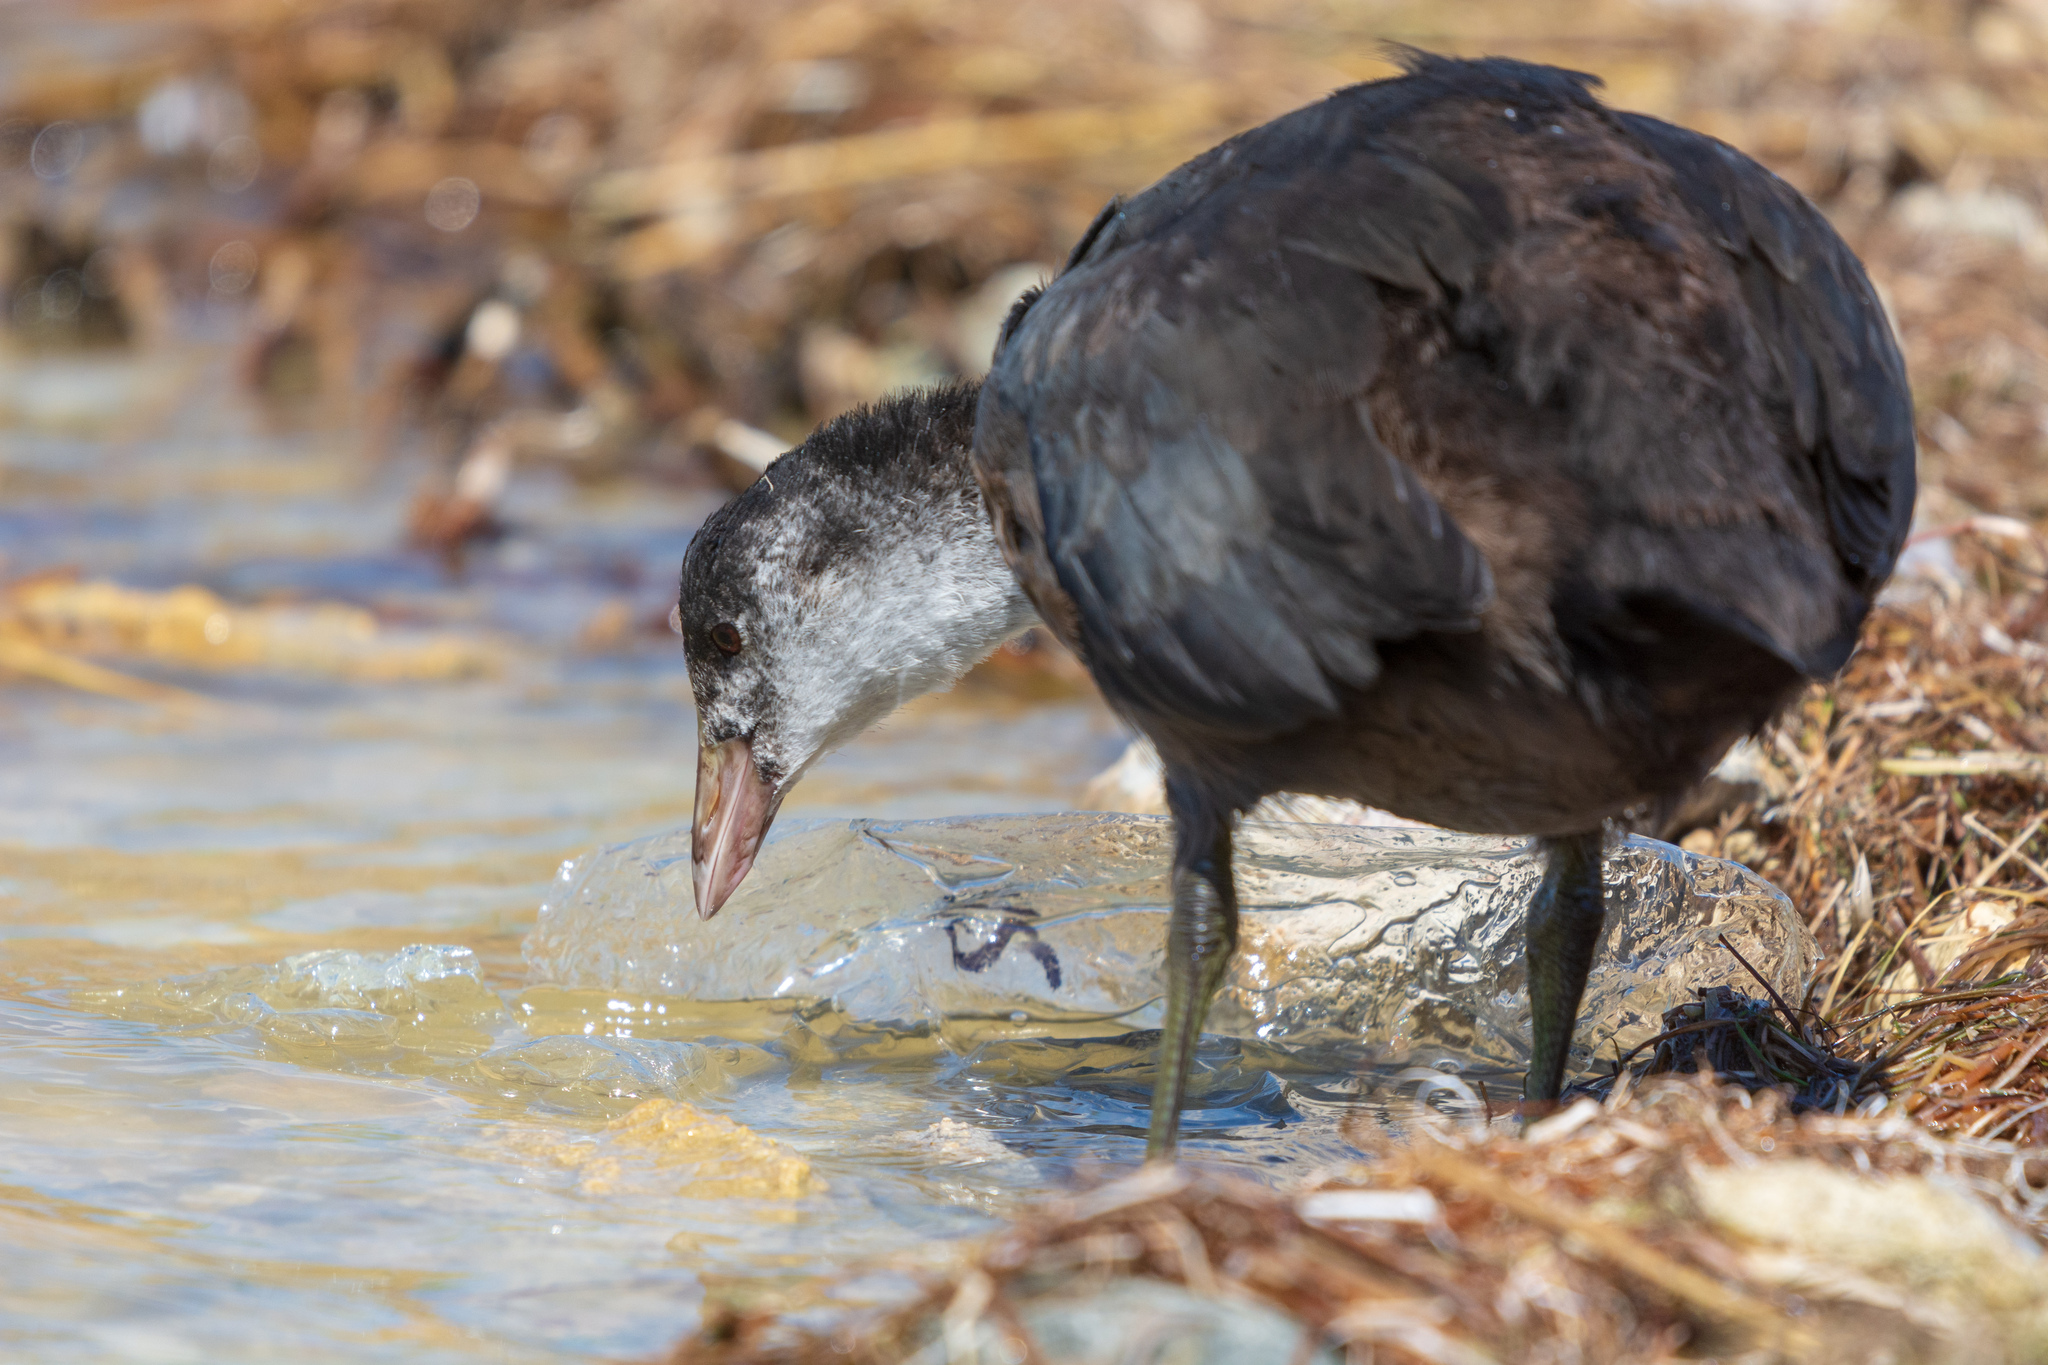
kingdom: Animalia
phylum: Chordata
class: Aves
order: Gruiformes
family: Rallidae
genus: Fulica
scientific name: Fulica atra
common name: Eurasian coot
